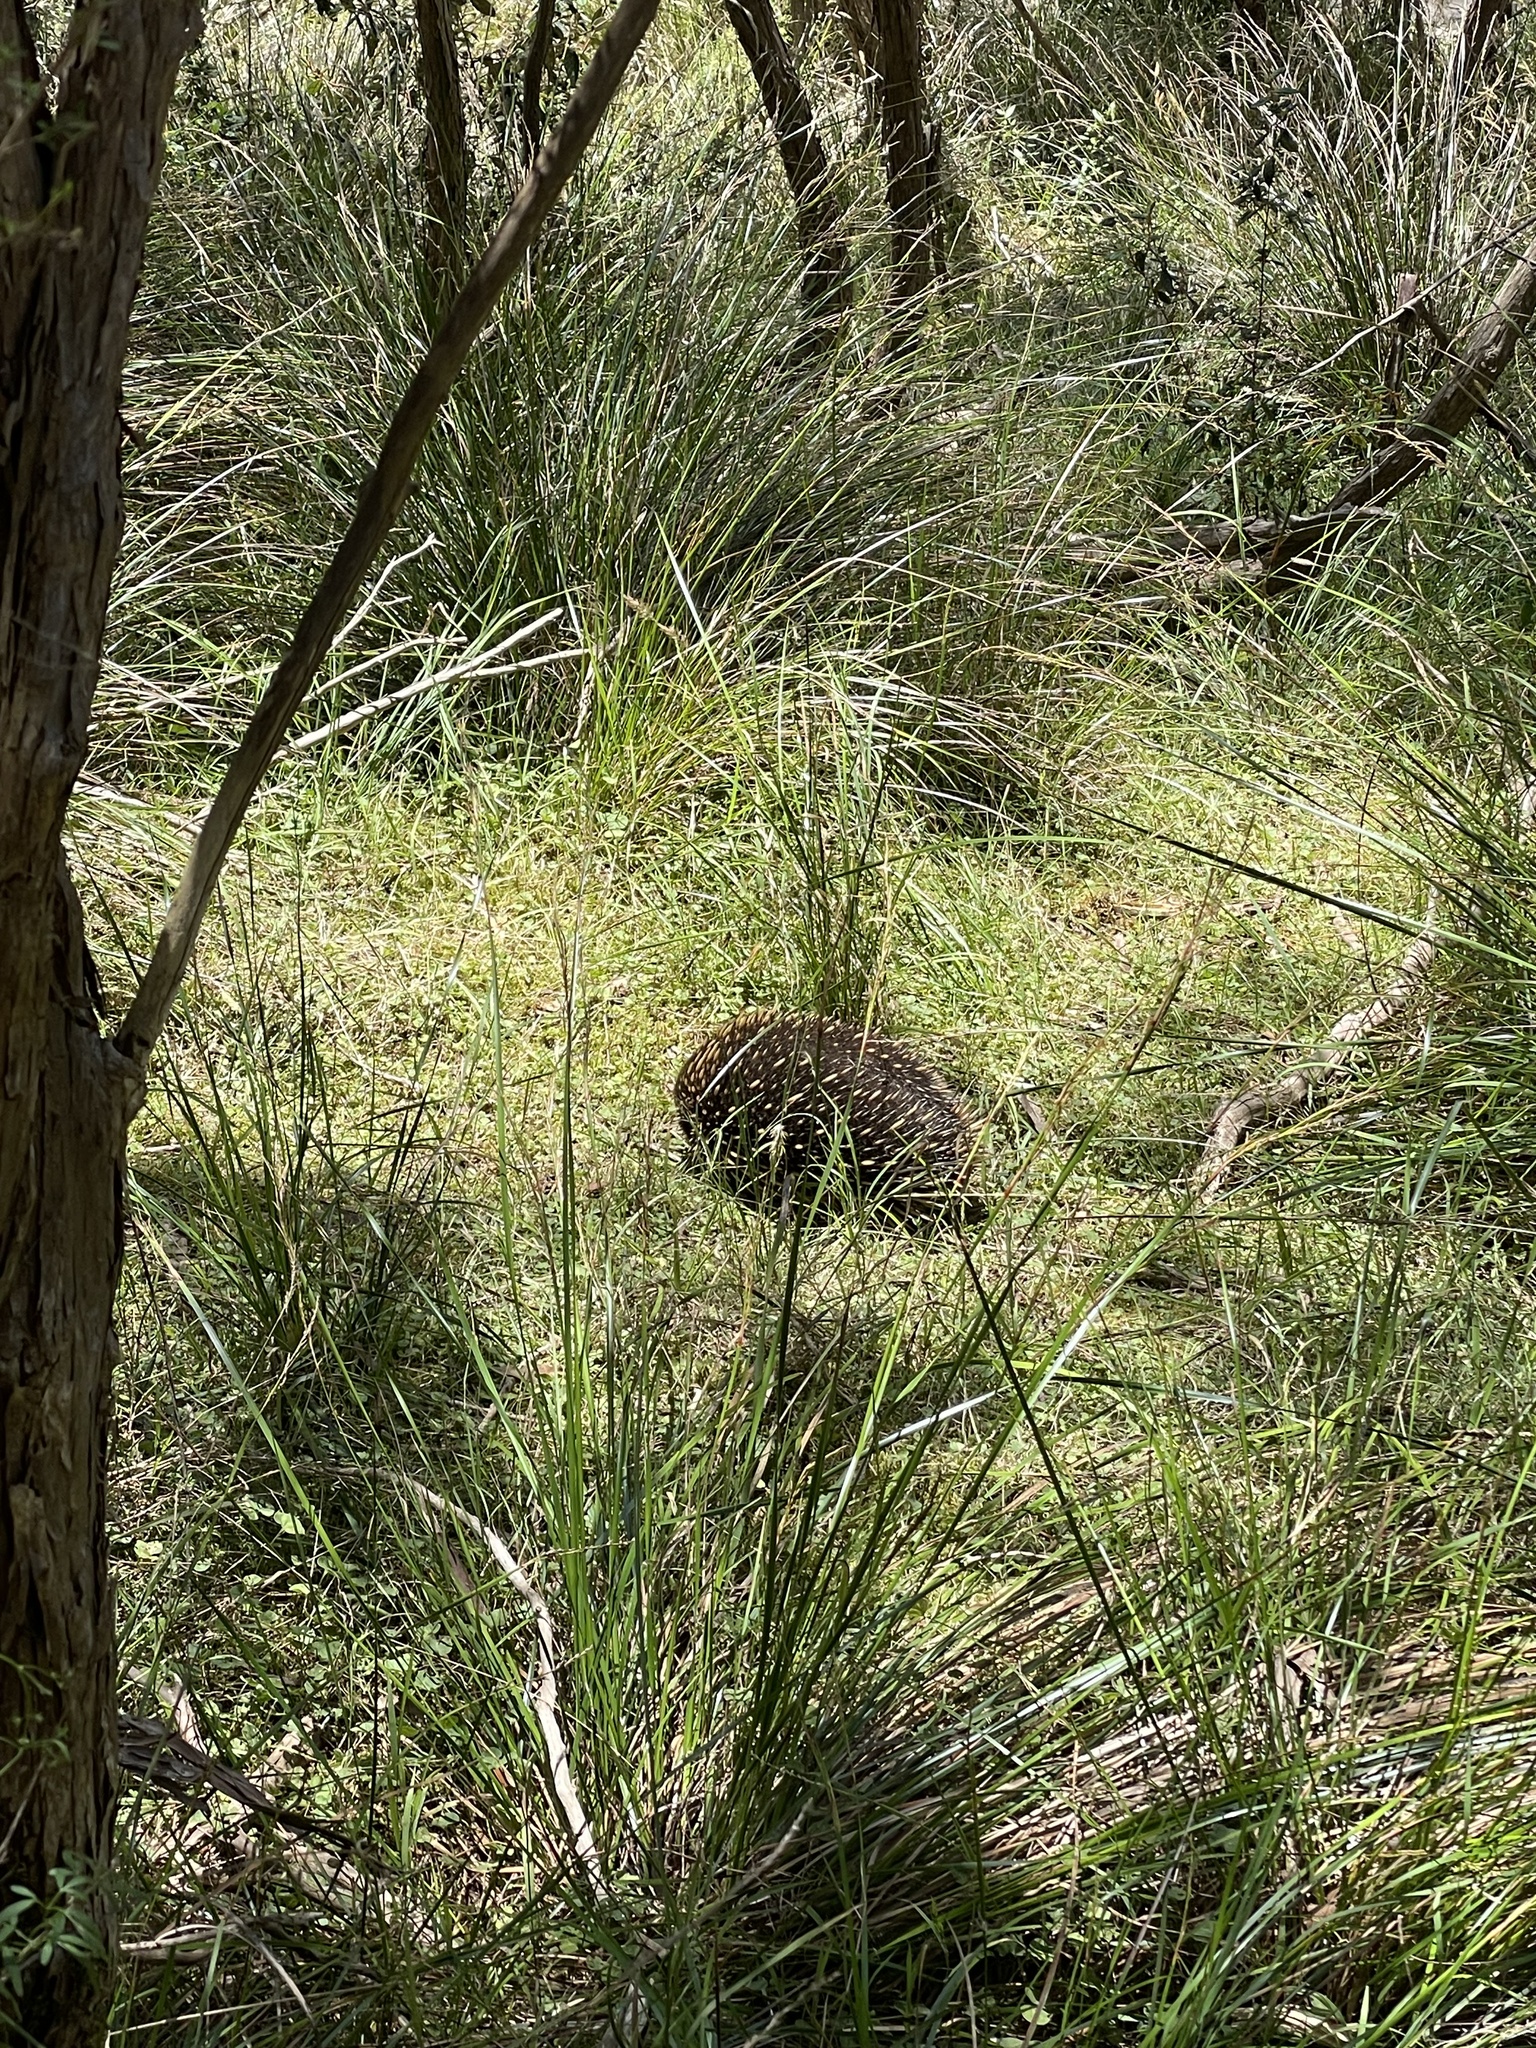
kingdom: Animalia
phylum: Chordata
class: Mammalia
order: Monotremata
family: Tachyglossidae
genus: Tachyglossus
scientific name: Tachyglossus aculeatus
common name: Short-beaked echidna
